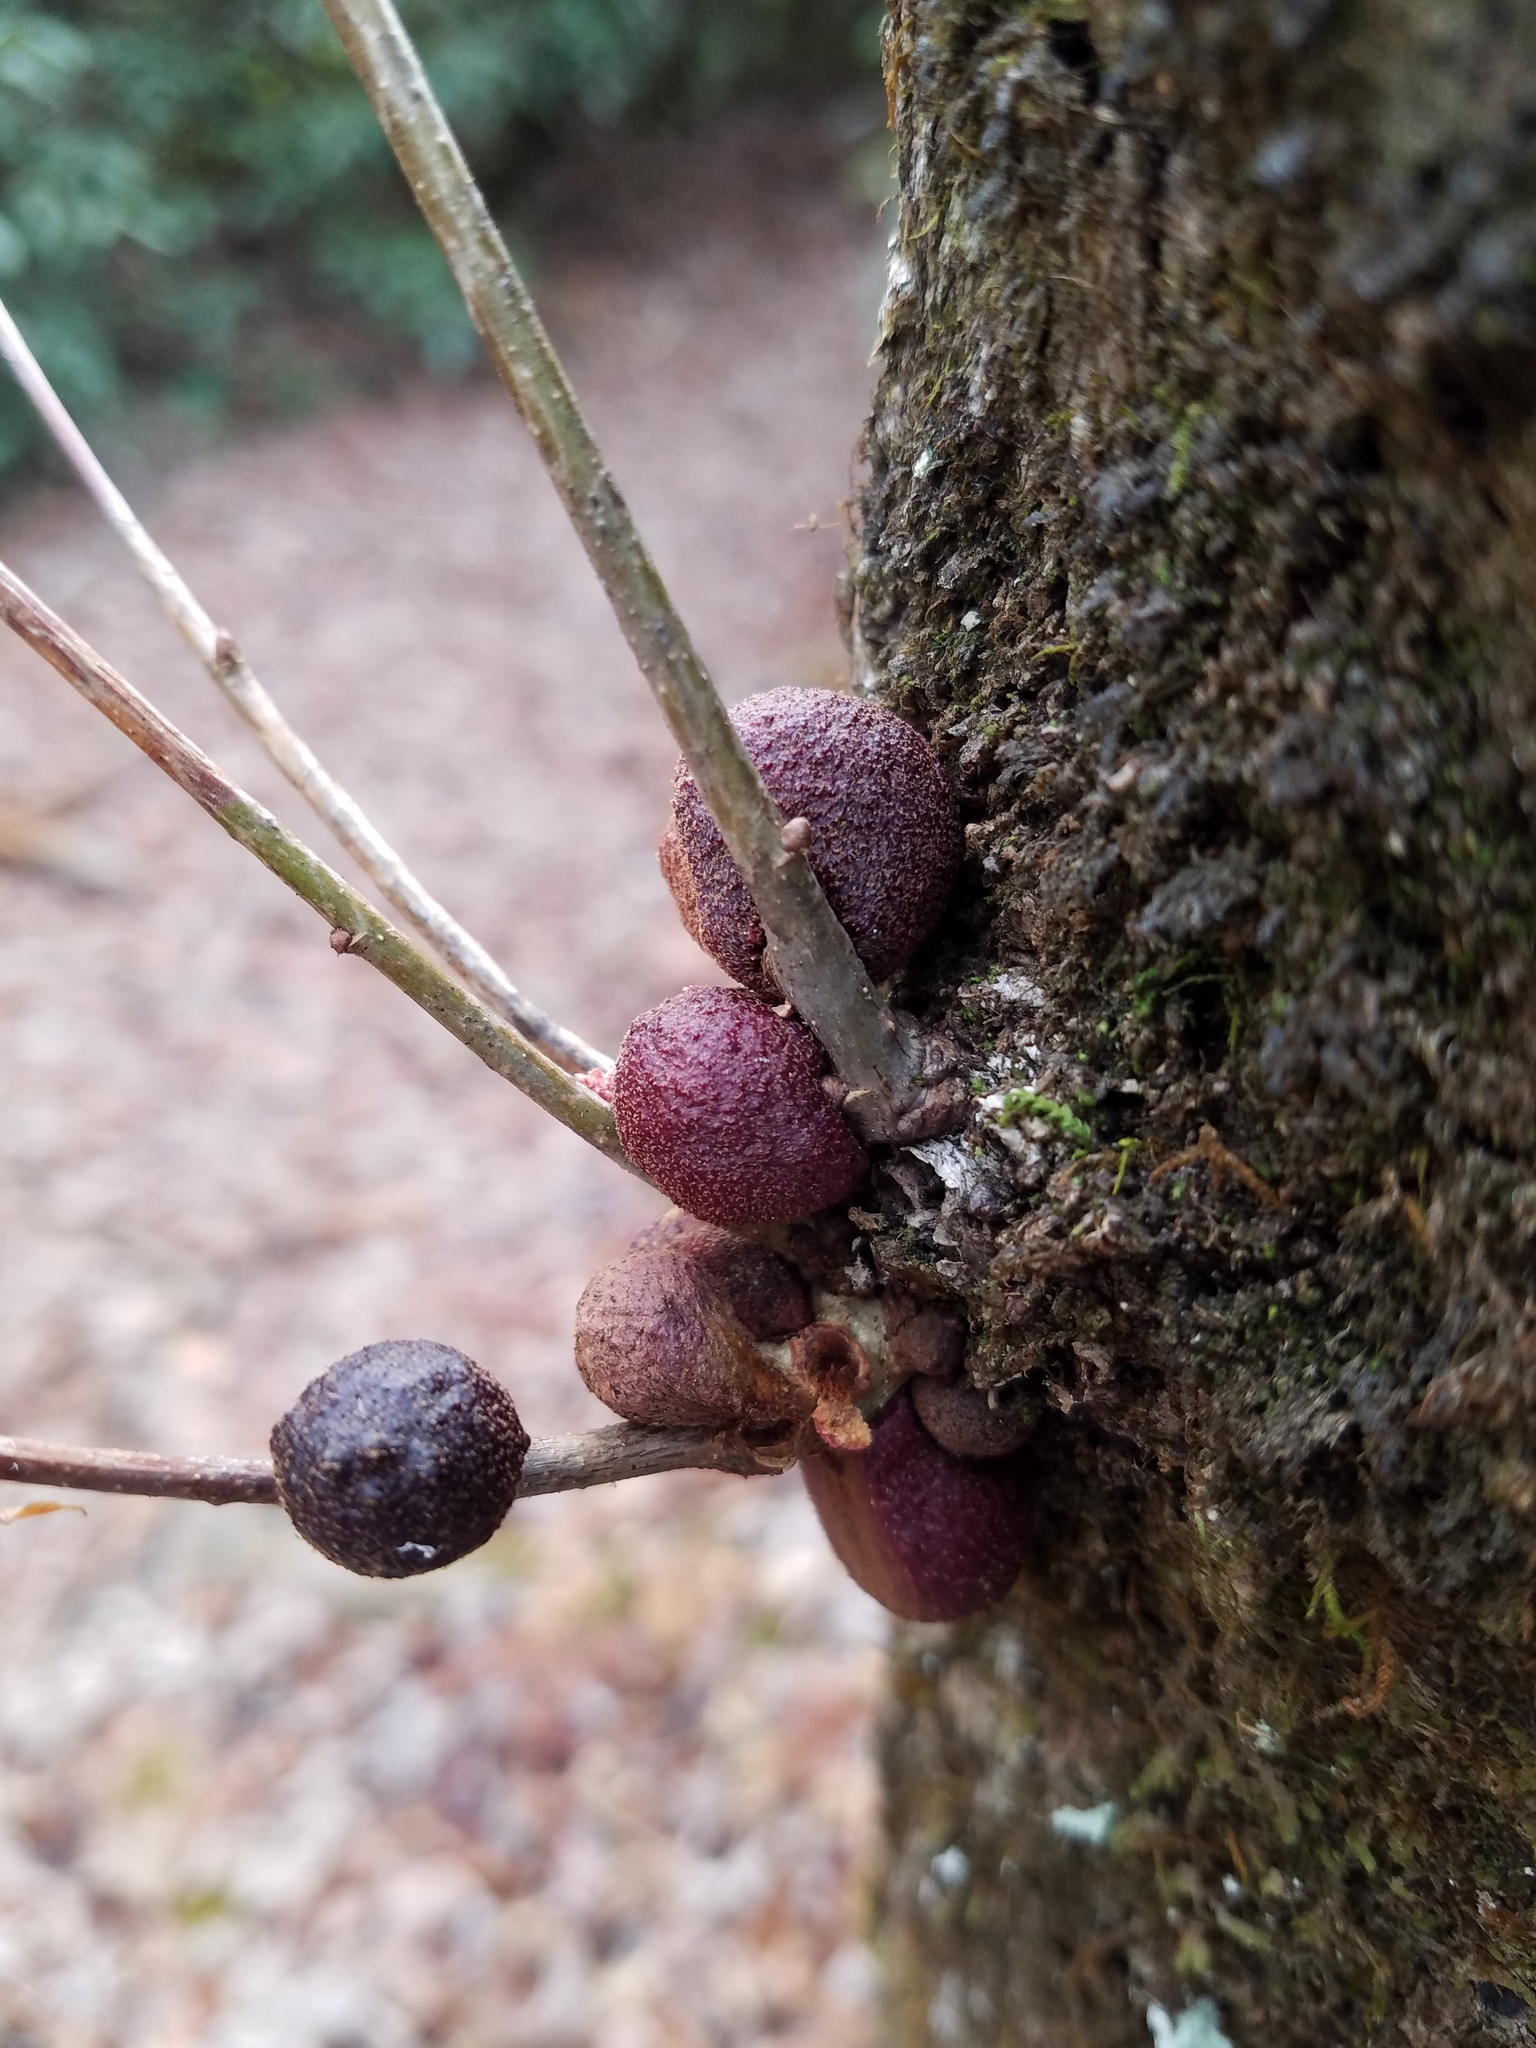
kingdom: Animalia
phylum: Arthropoda
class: Insecta
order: Hymenoptera
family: Cynipidae
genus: Disholcaspis
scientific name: Disholcaspis
